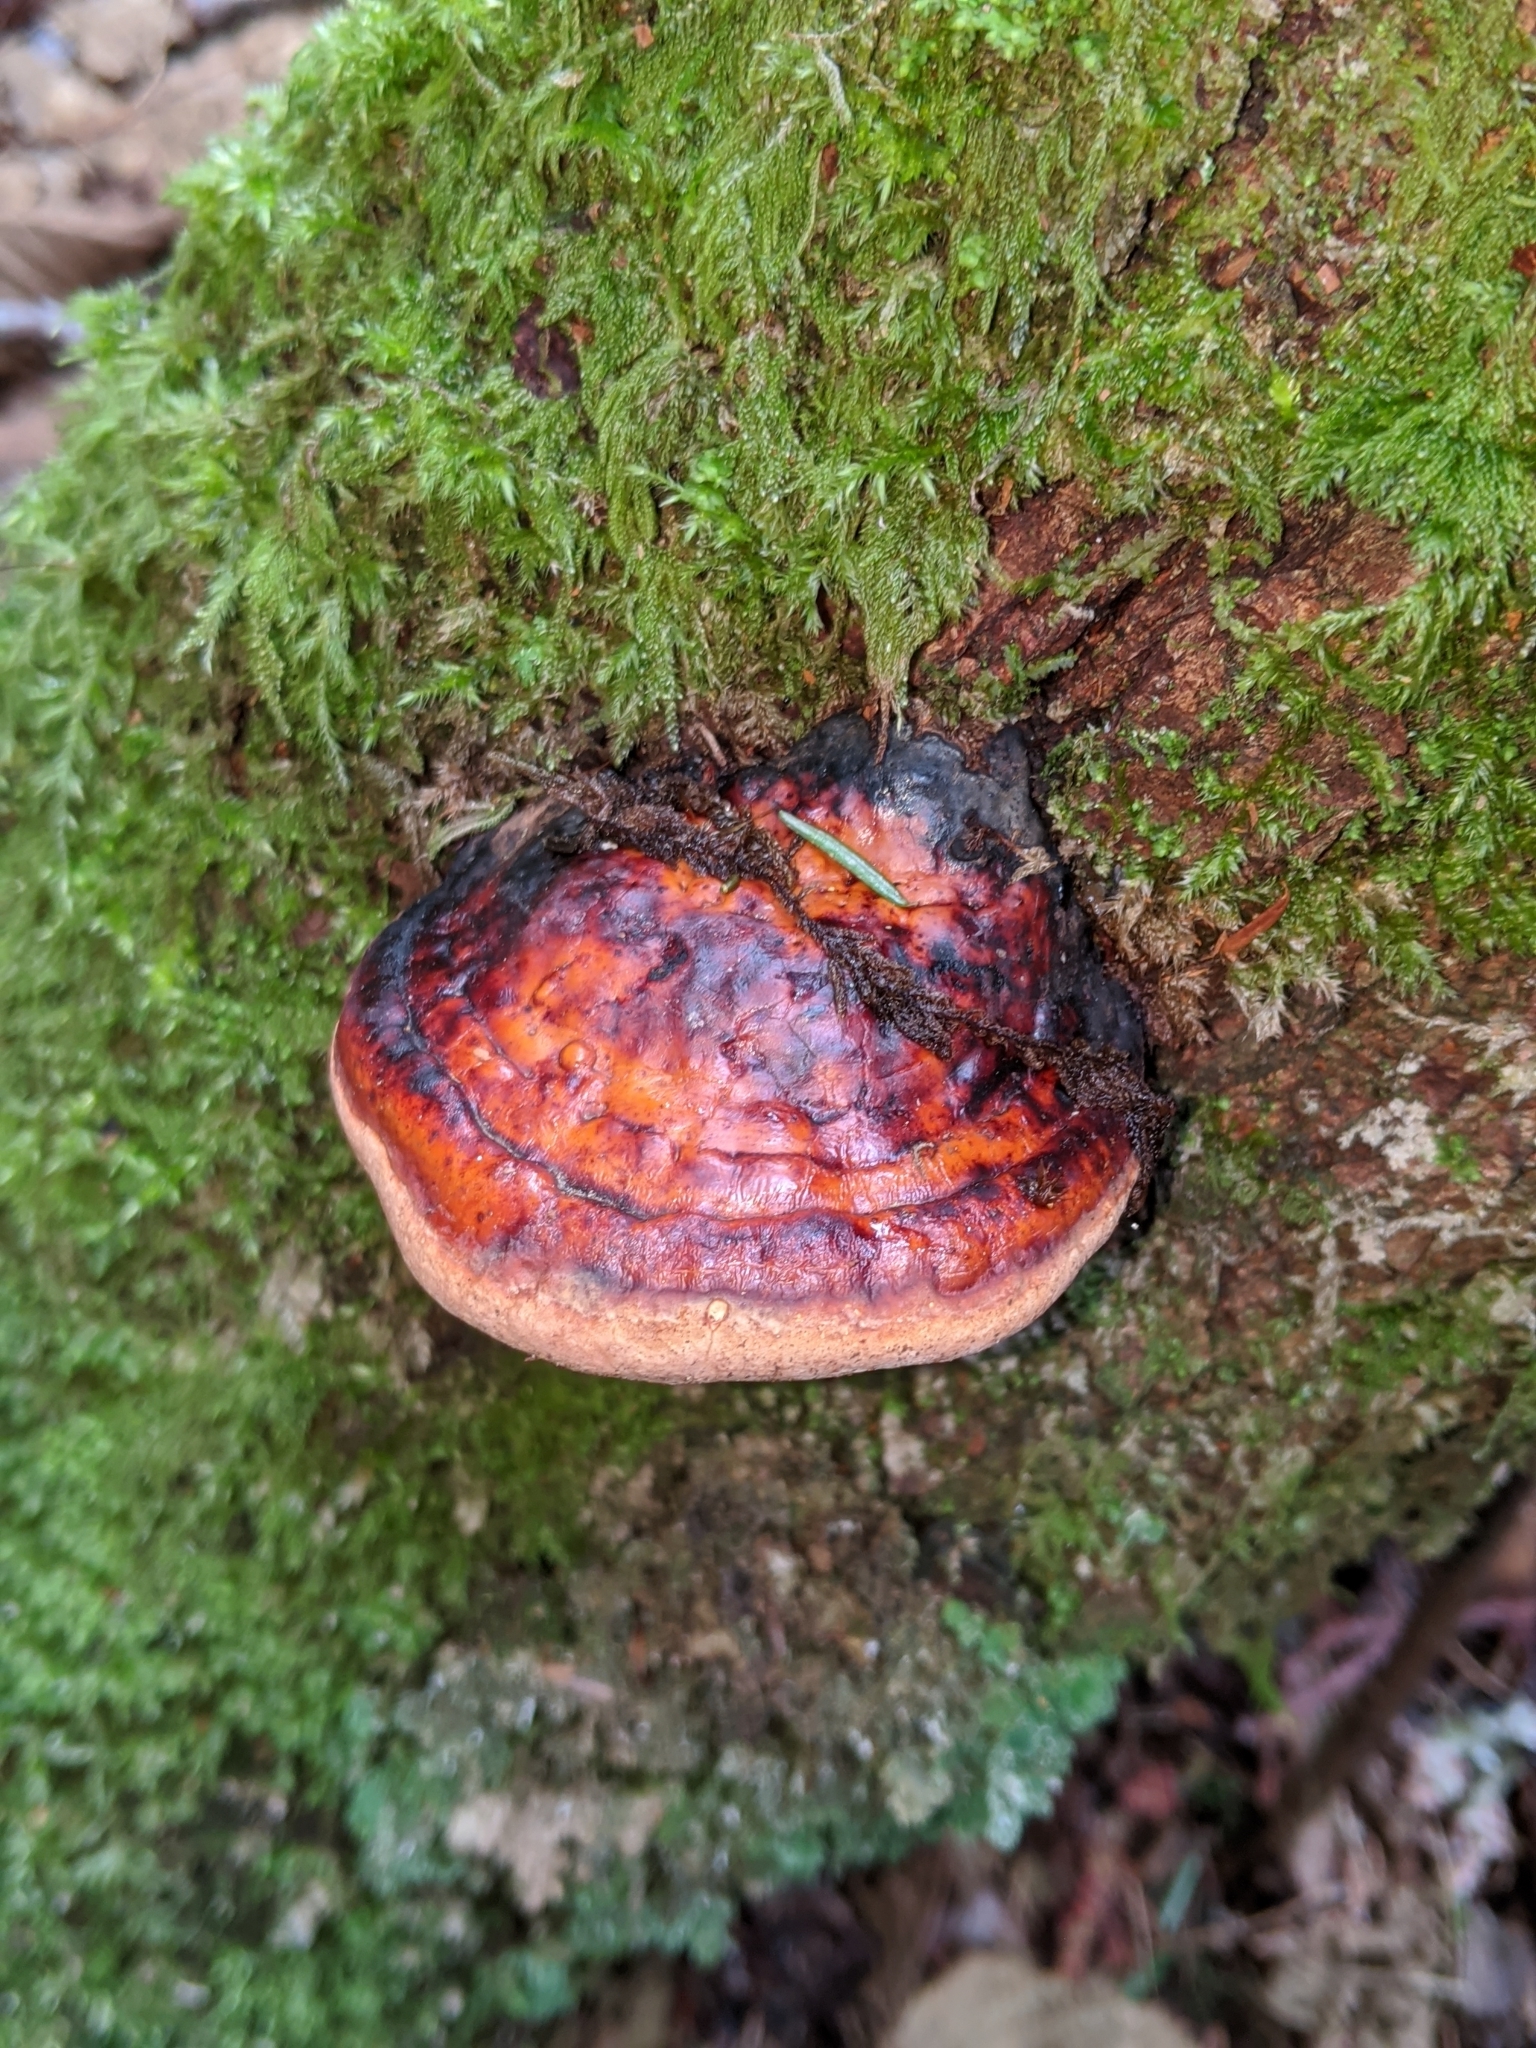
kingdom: Fungi
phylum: Basidiomycota
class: Agaricomycetes
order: Polyporales
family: Fomitopsidaceae
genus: Fomitopsis
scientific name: Fomitopsis mounceae
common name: Northern red belt
